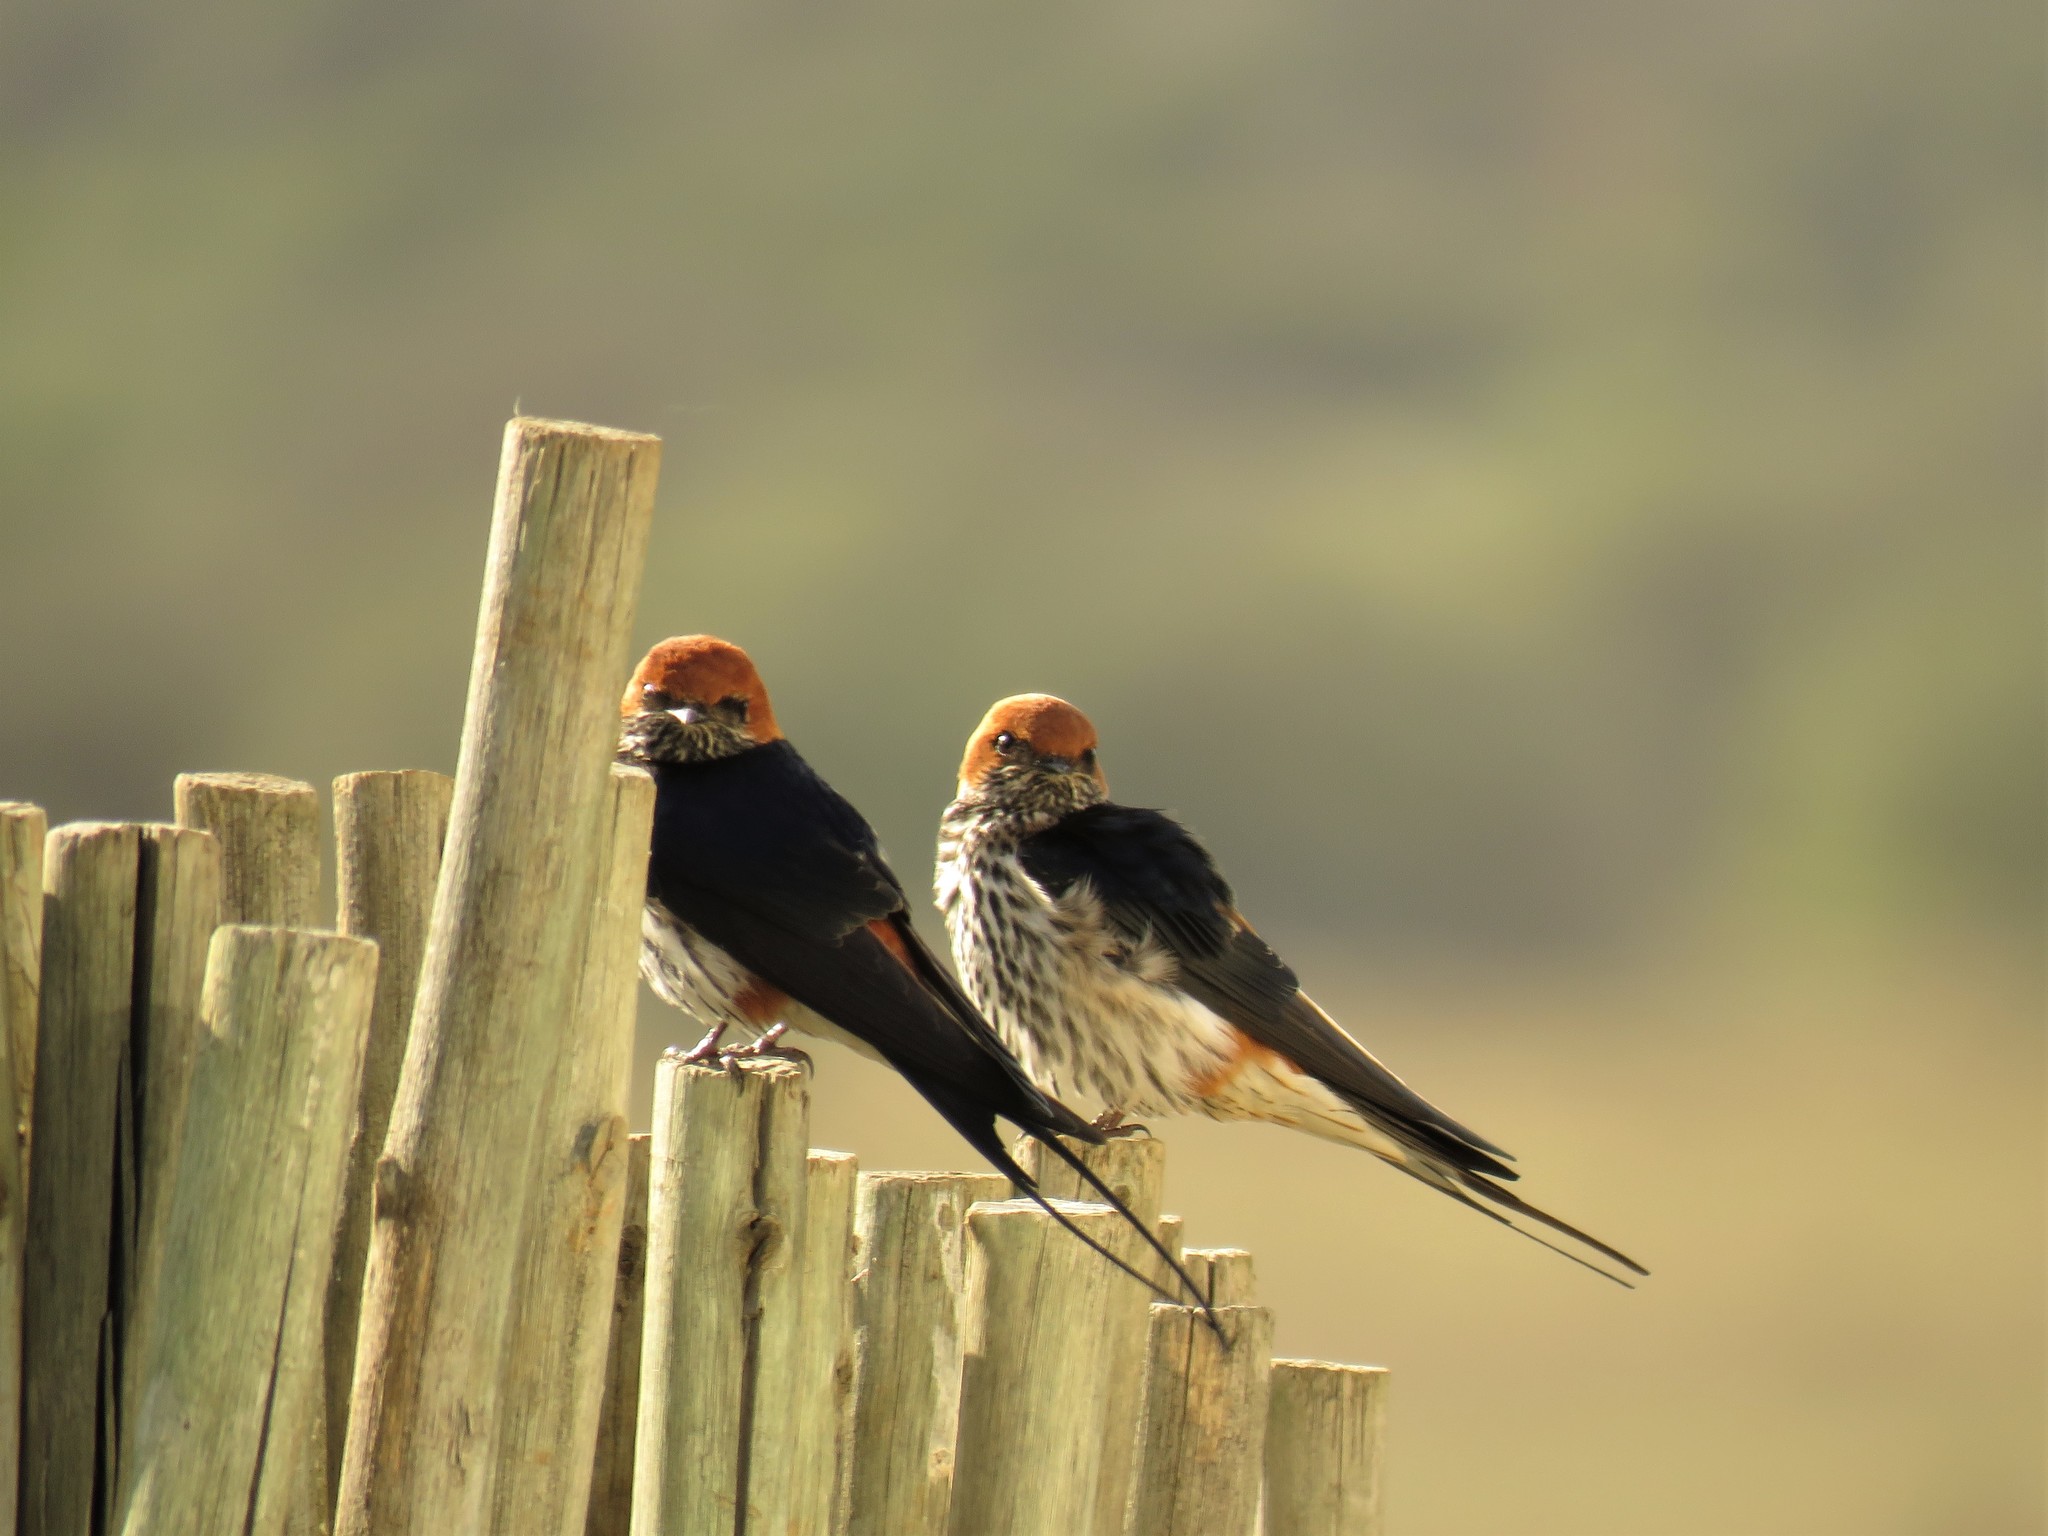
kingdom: Animalia
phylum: Chordata
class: Aves
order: Passeriformes
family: Hirundinidae
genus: Cecropis
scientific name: Cecropis abyssinica
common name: Lesser striped-swallow
